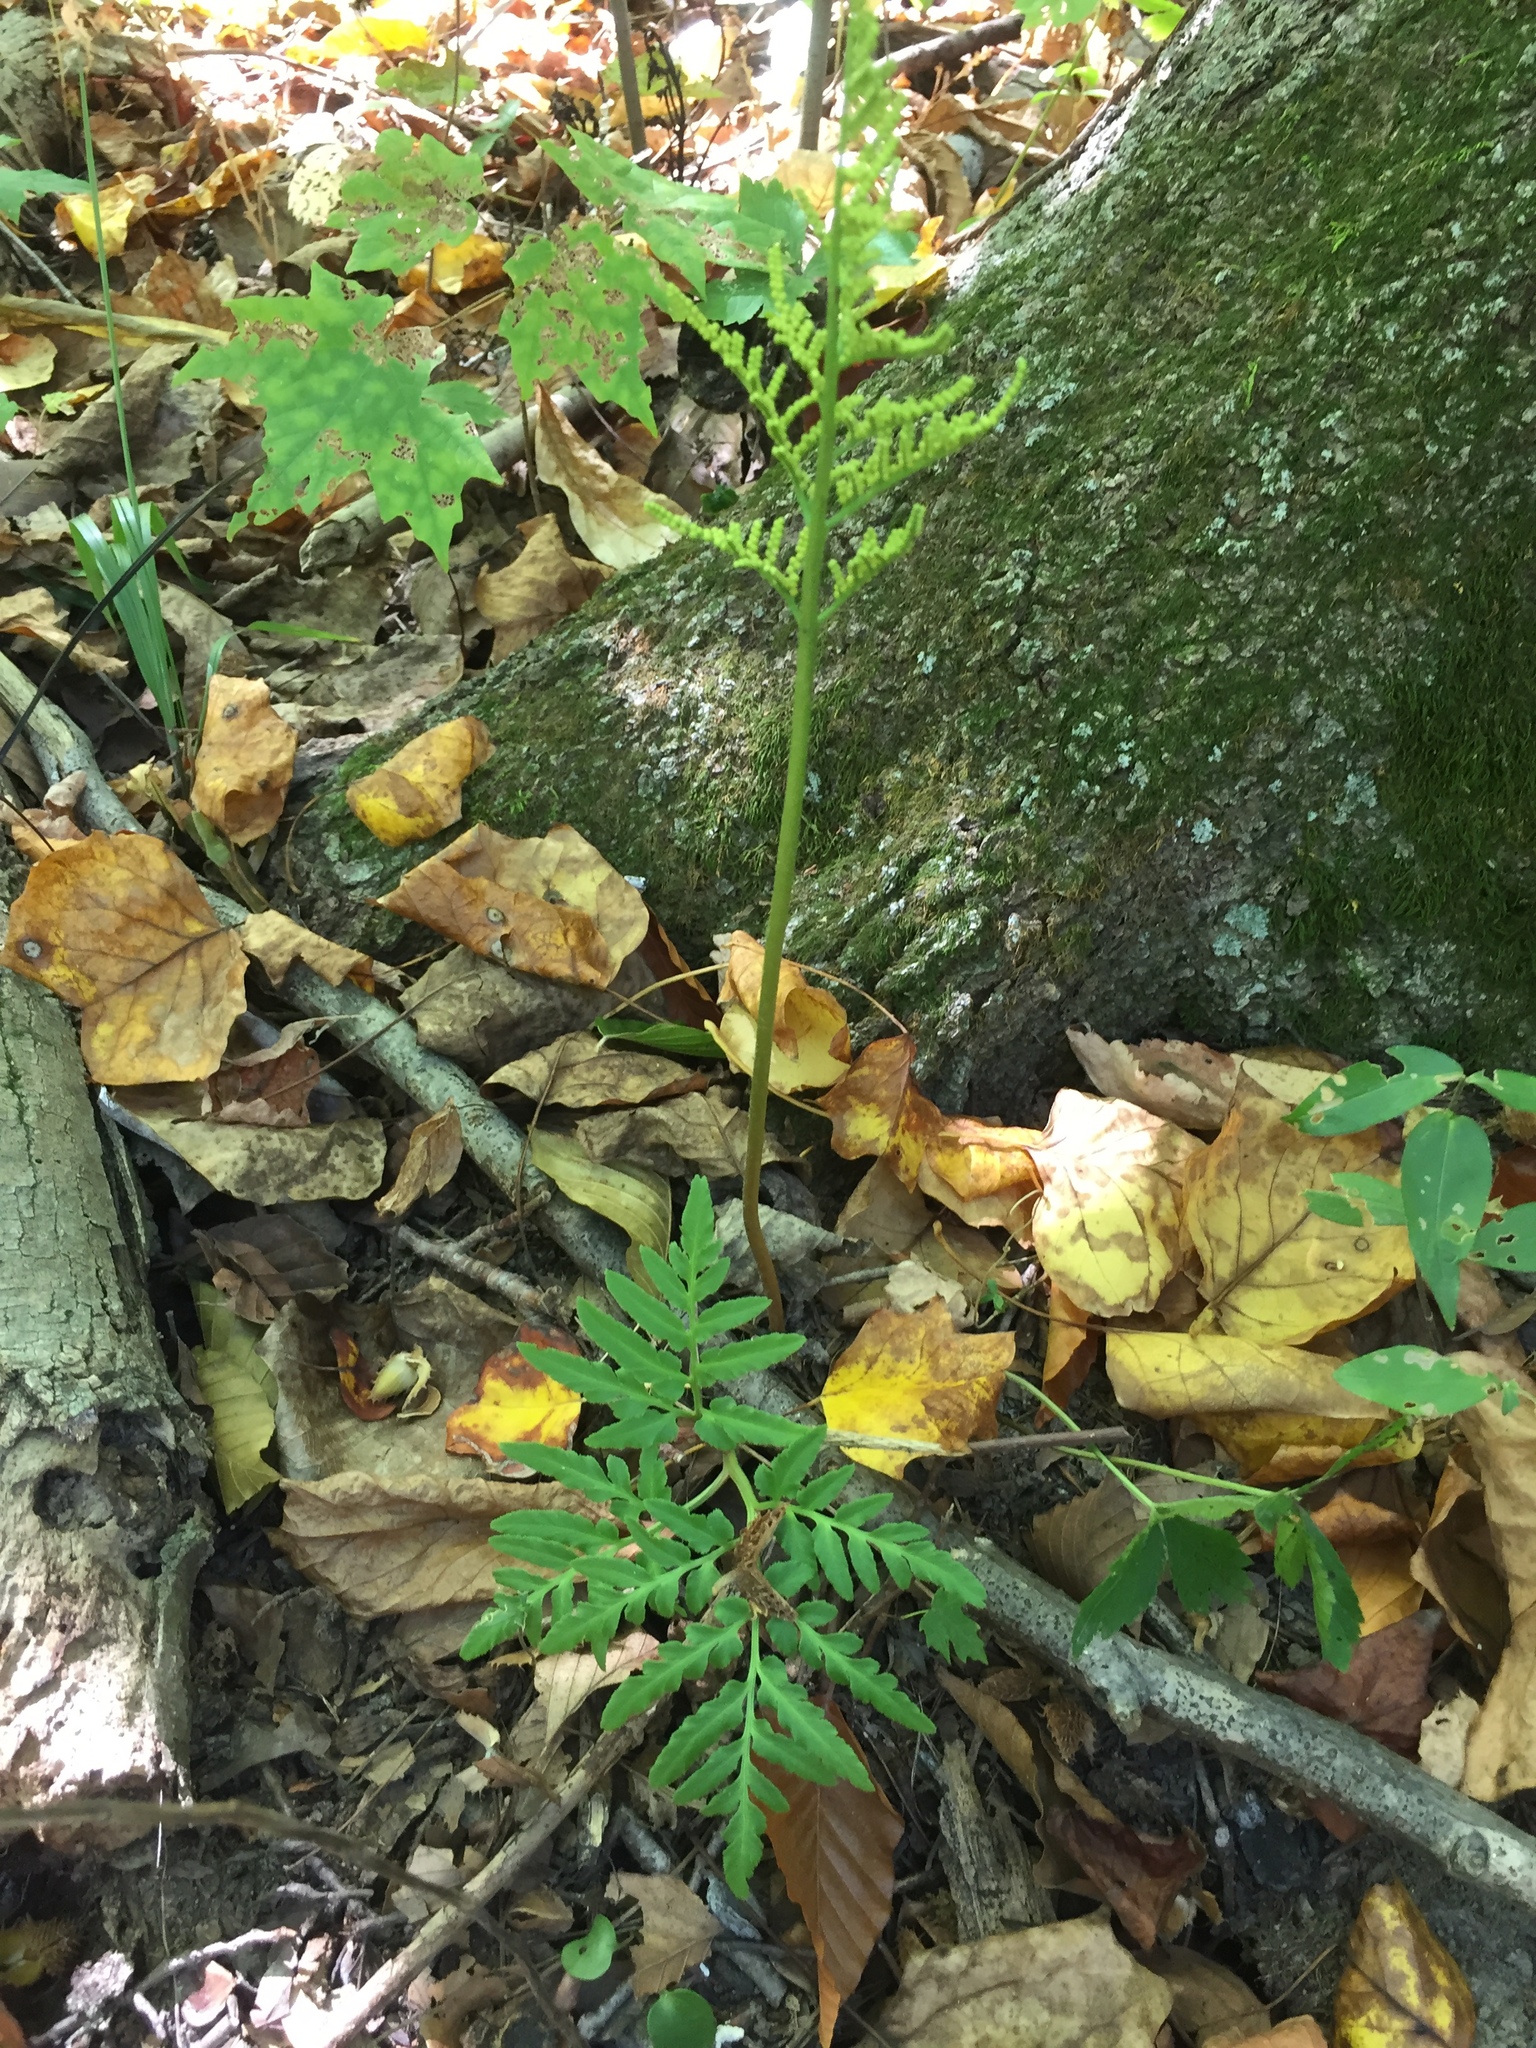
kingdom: Plantae
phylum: Tracheophyta
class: Polypodiopsida
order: Ophioglossales
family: Ophioglossaceae
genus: Sceptridium
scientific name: Sceptridium dissectum
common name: Cut-leaved grapefern
